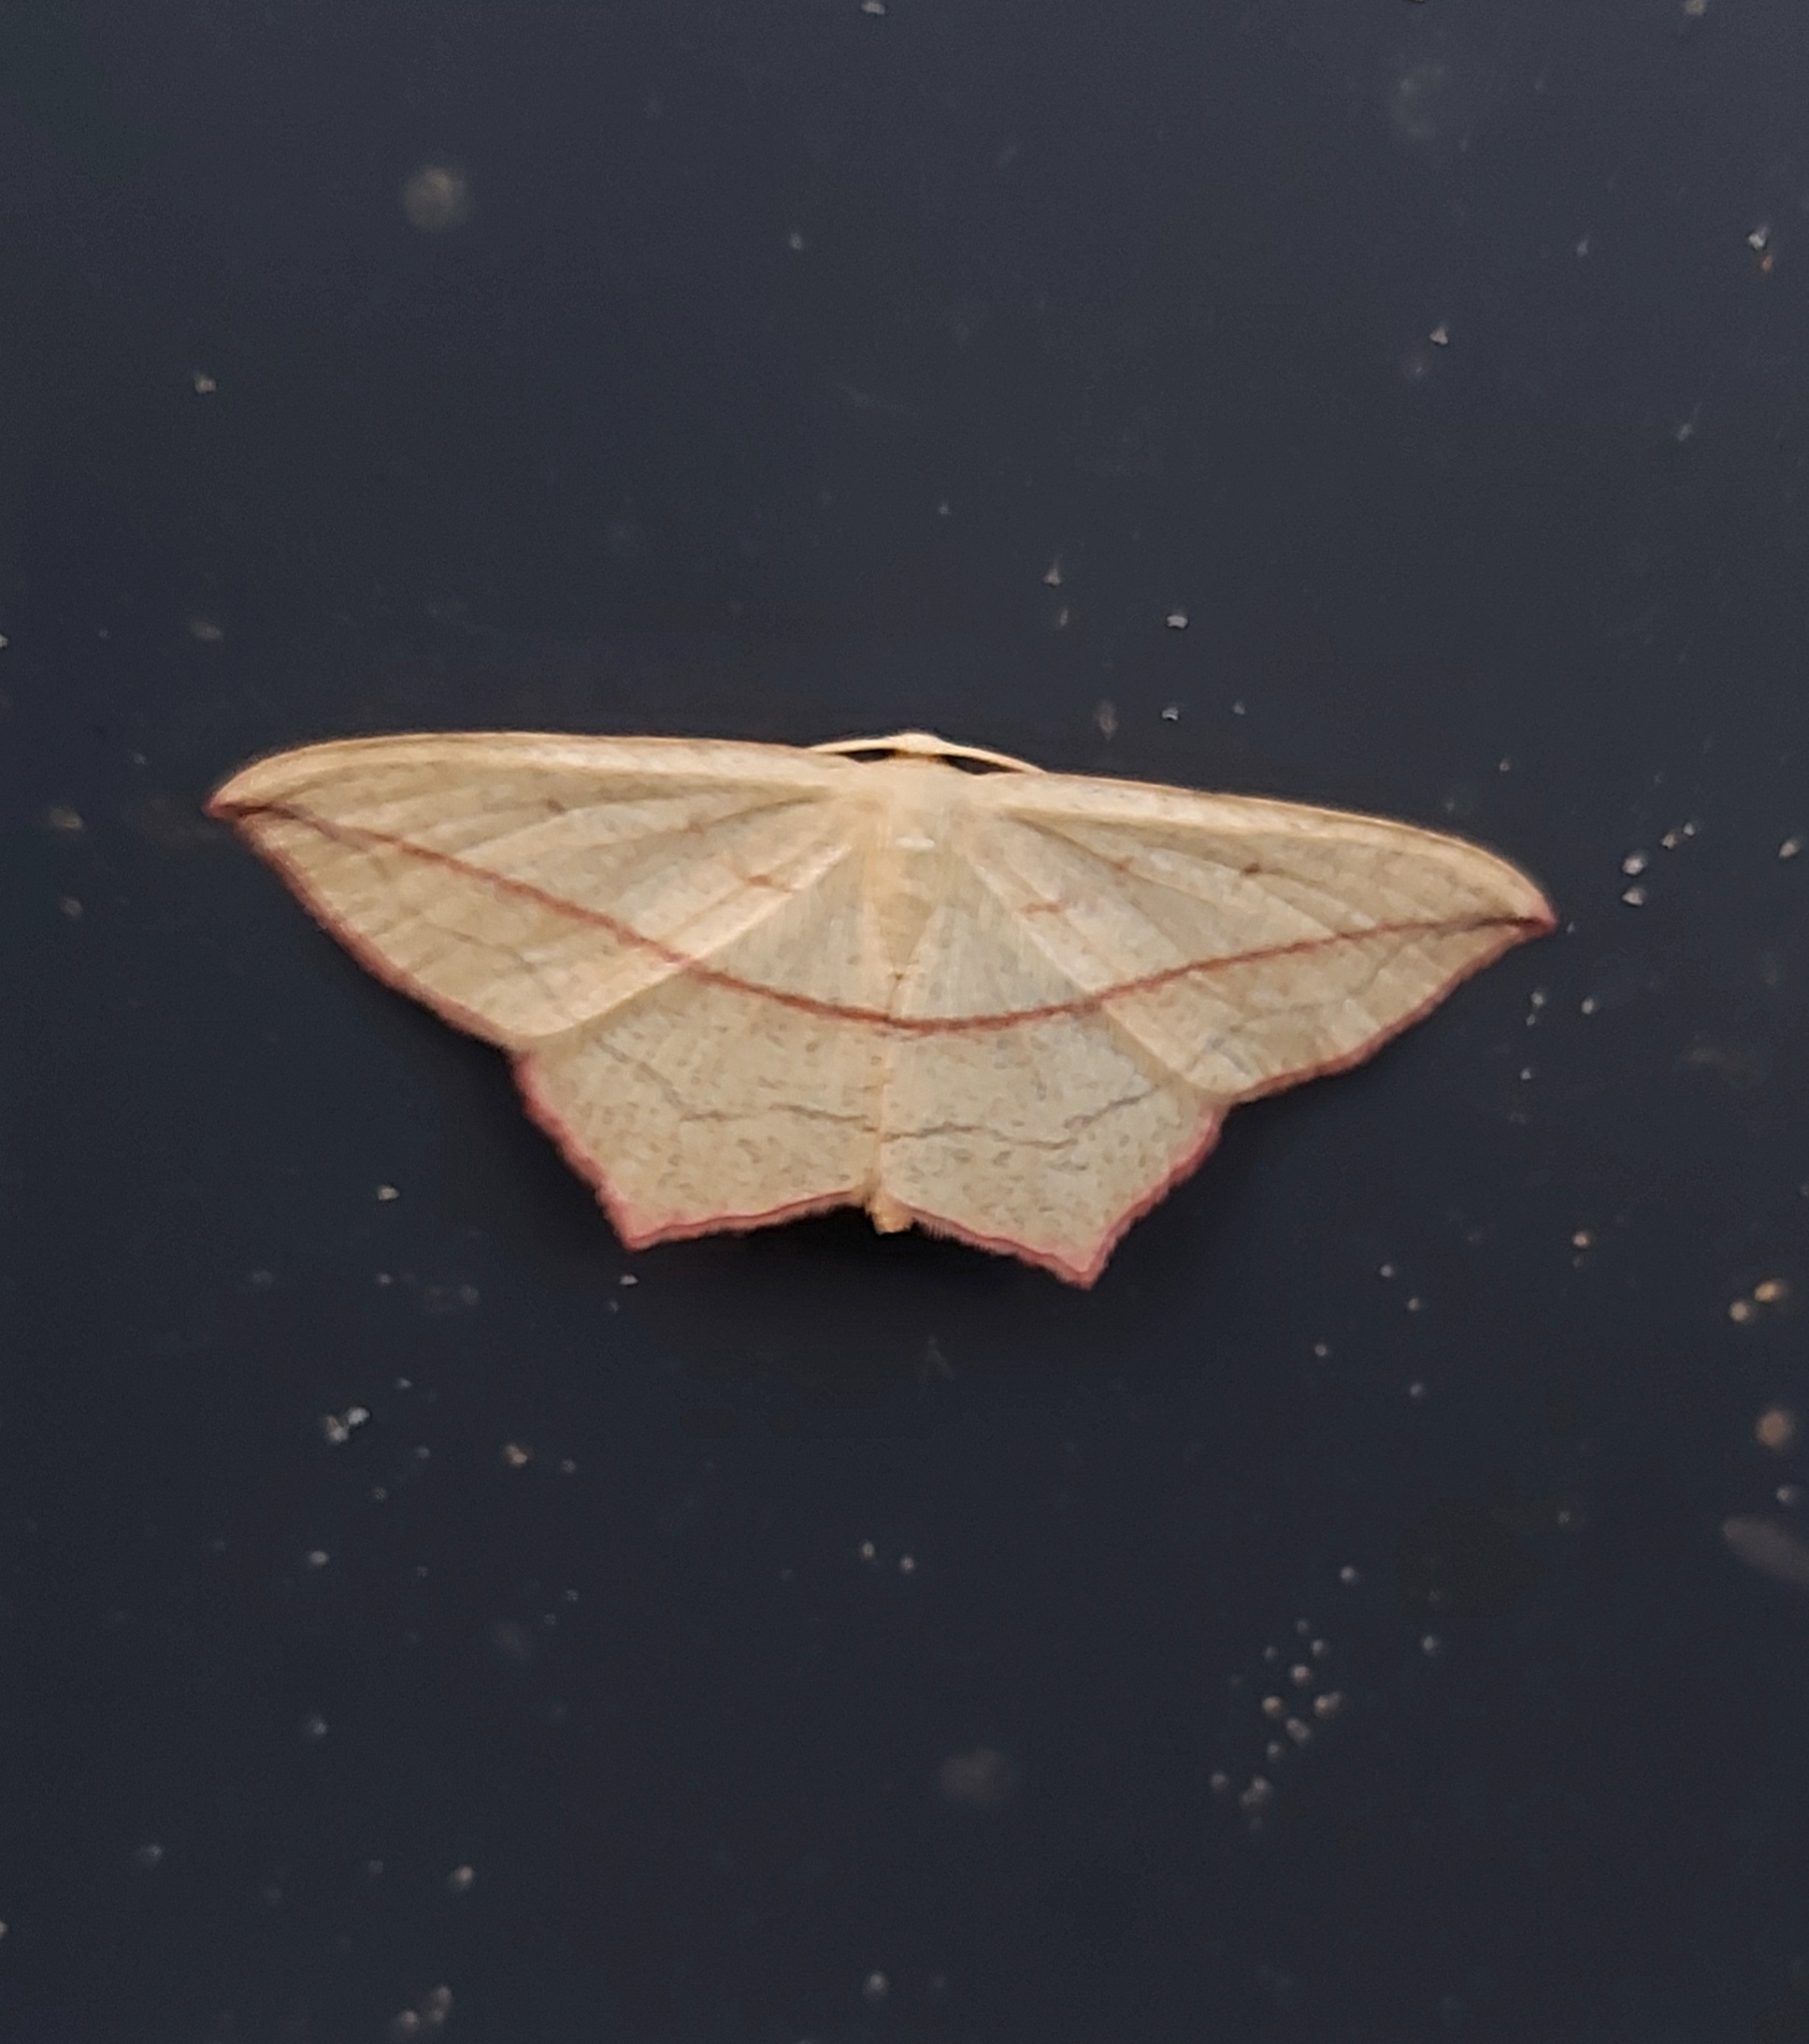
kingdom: Animalia
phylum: Arthropoda
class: Insecta
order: Lepidoptera
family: Geometridae
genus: Timandra
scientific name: Timandra comae
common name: Blood-vein
